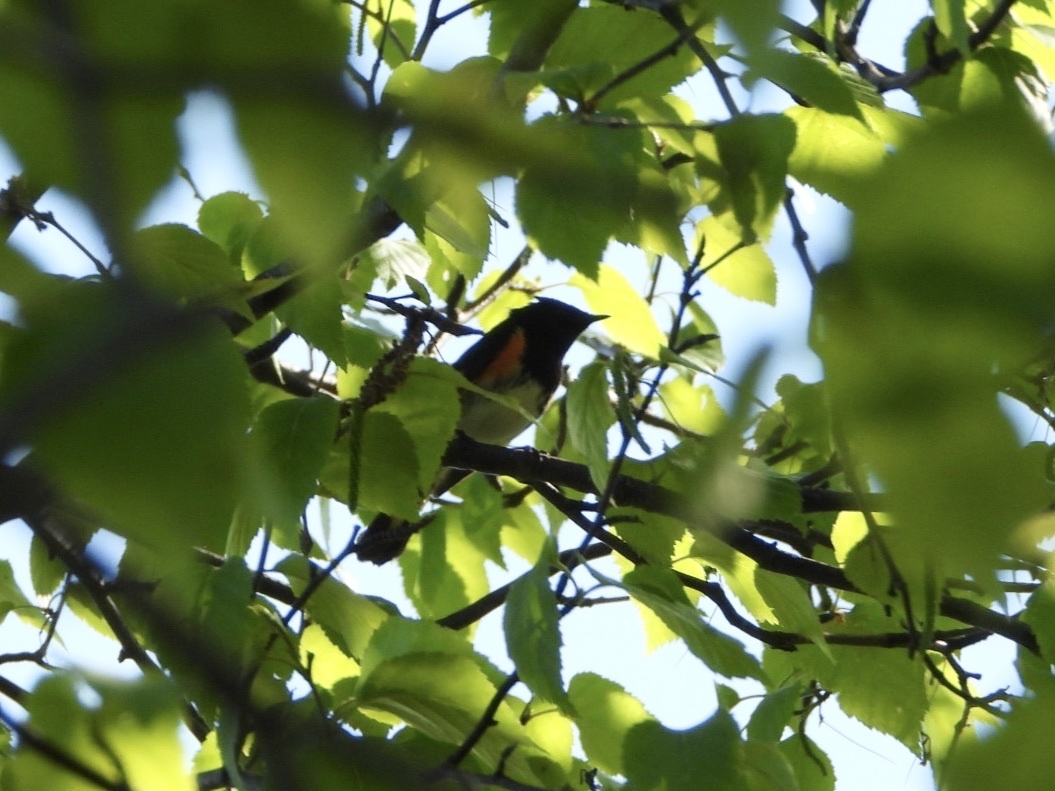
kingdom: Animalia
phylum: Chordata
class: Aves
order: Passeriformes
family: Parulidae
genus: Setophaga
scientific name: Setophaga ruticilla
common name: American redstart
